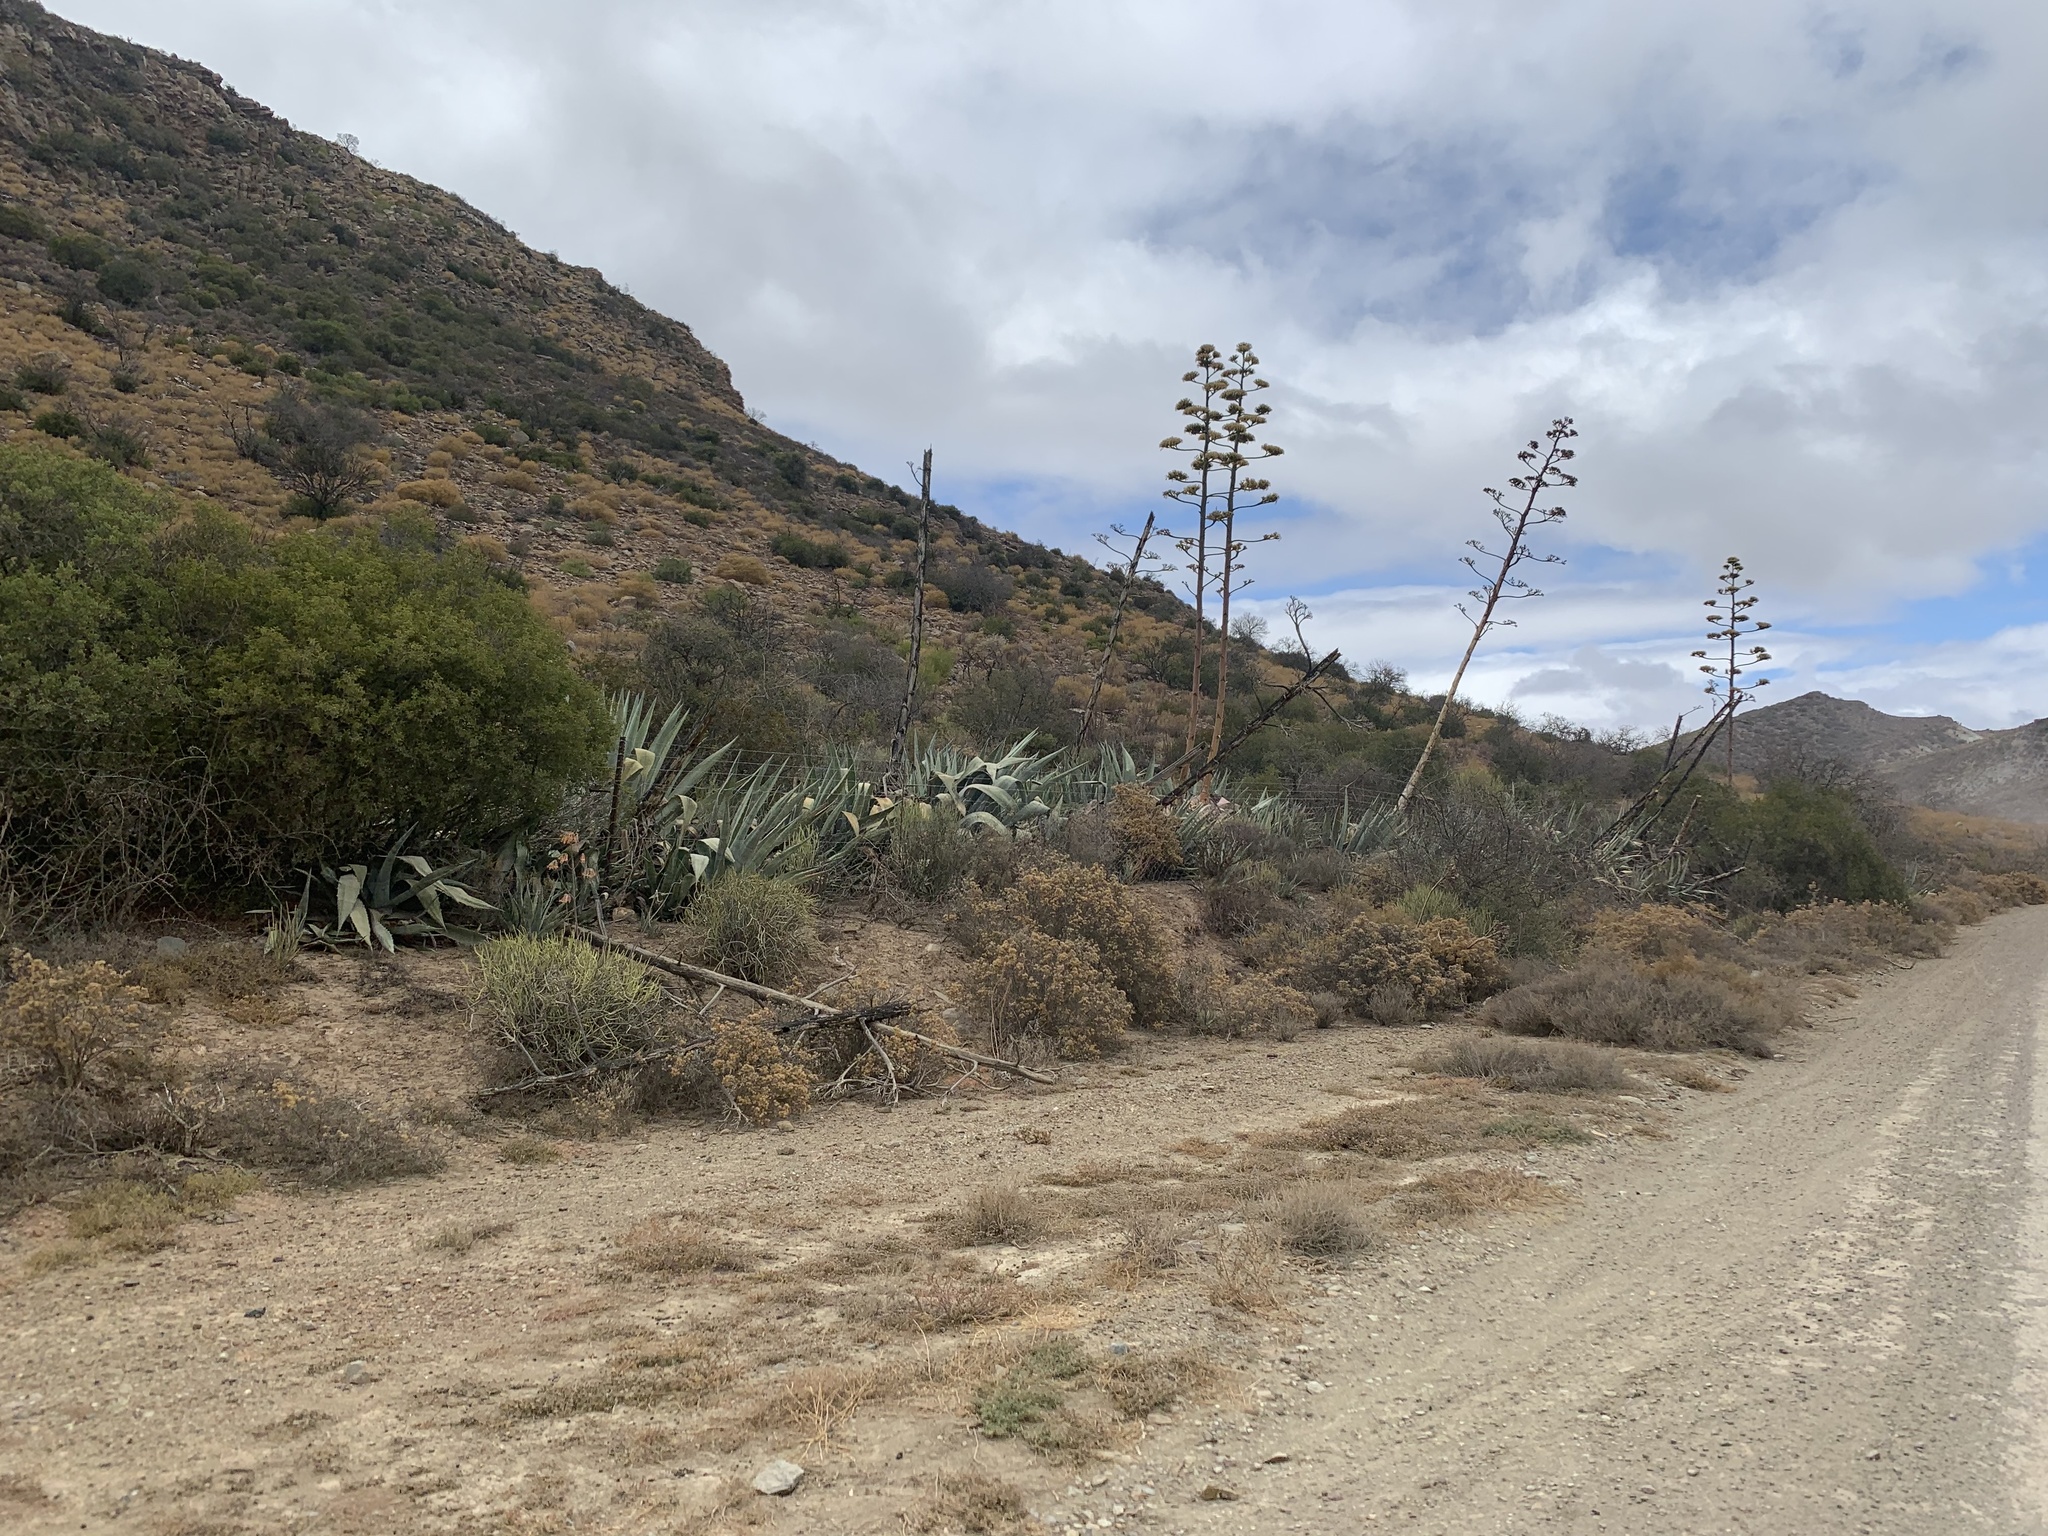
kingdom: Plantae
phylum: Tracheophyta
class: Liliopsida
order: Asparagales
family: Asparagaceae
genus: Agave
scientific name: Agave americana
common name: Centuryplant
